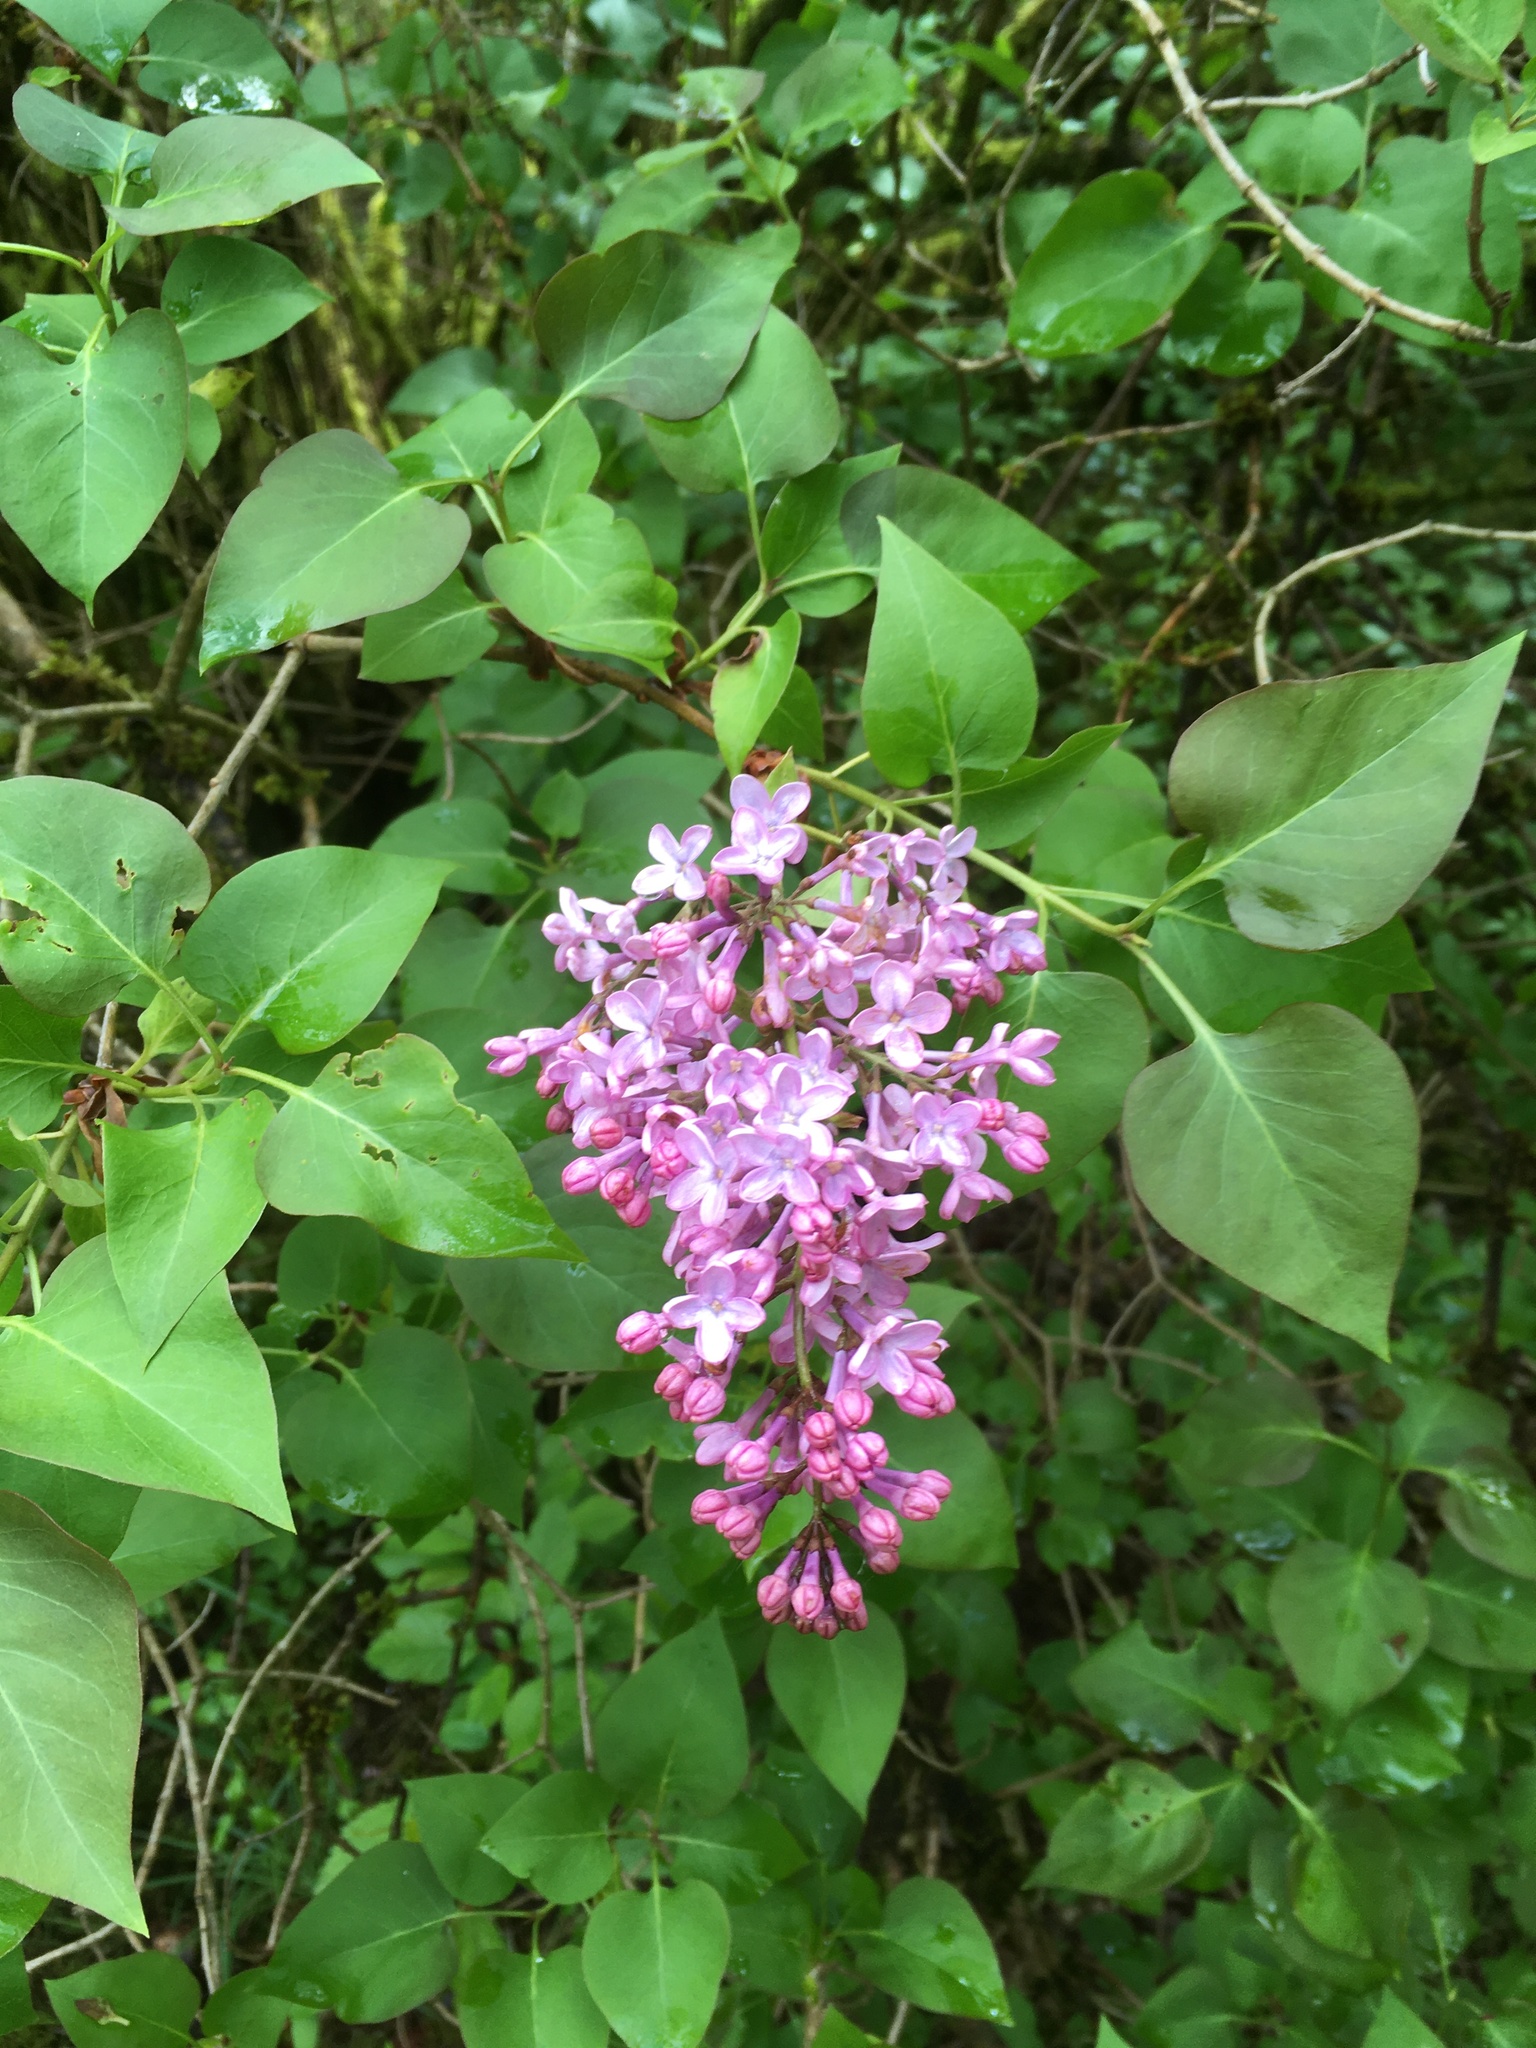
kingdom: Plantae
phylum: Tracheophyta
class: Magnoliopsida
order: Lamiales
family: Oleaceae
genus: Syringa
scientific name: Syringa vulgaris
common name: Common lilac
